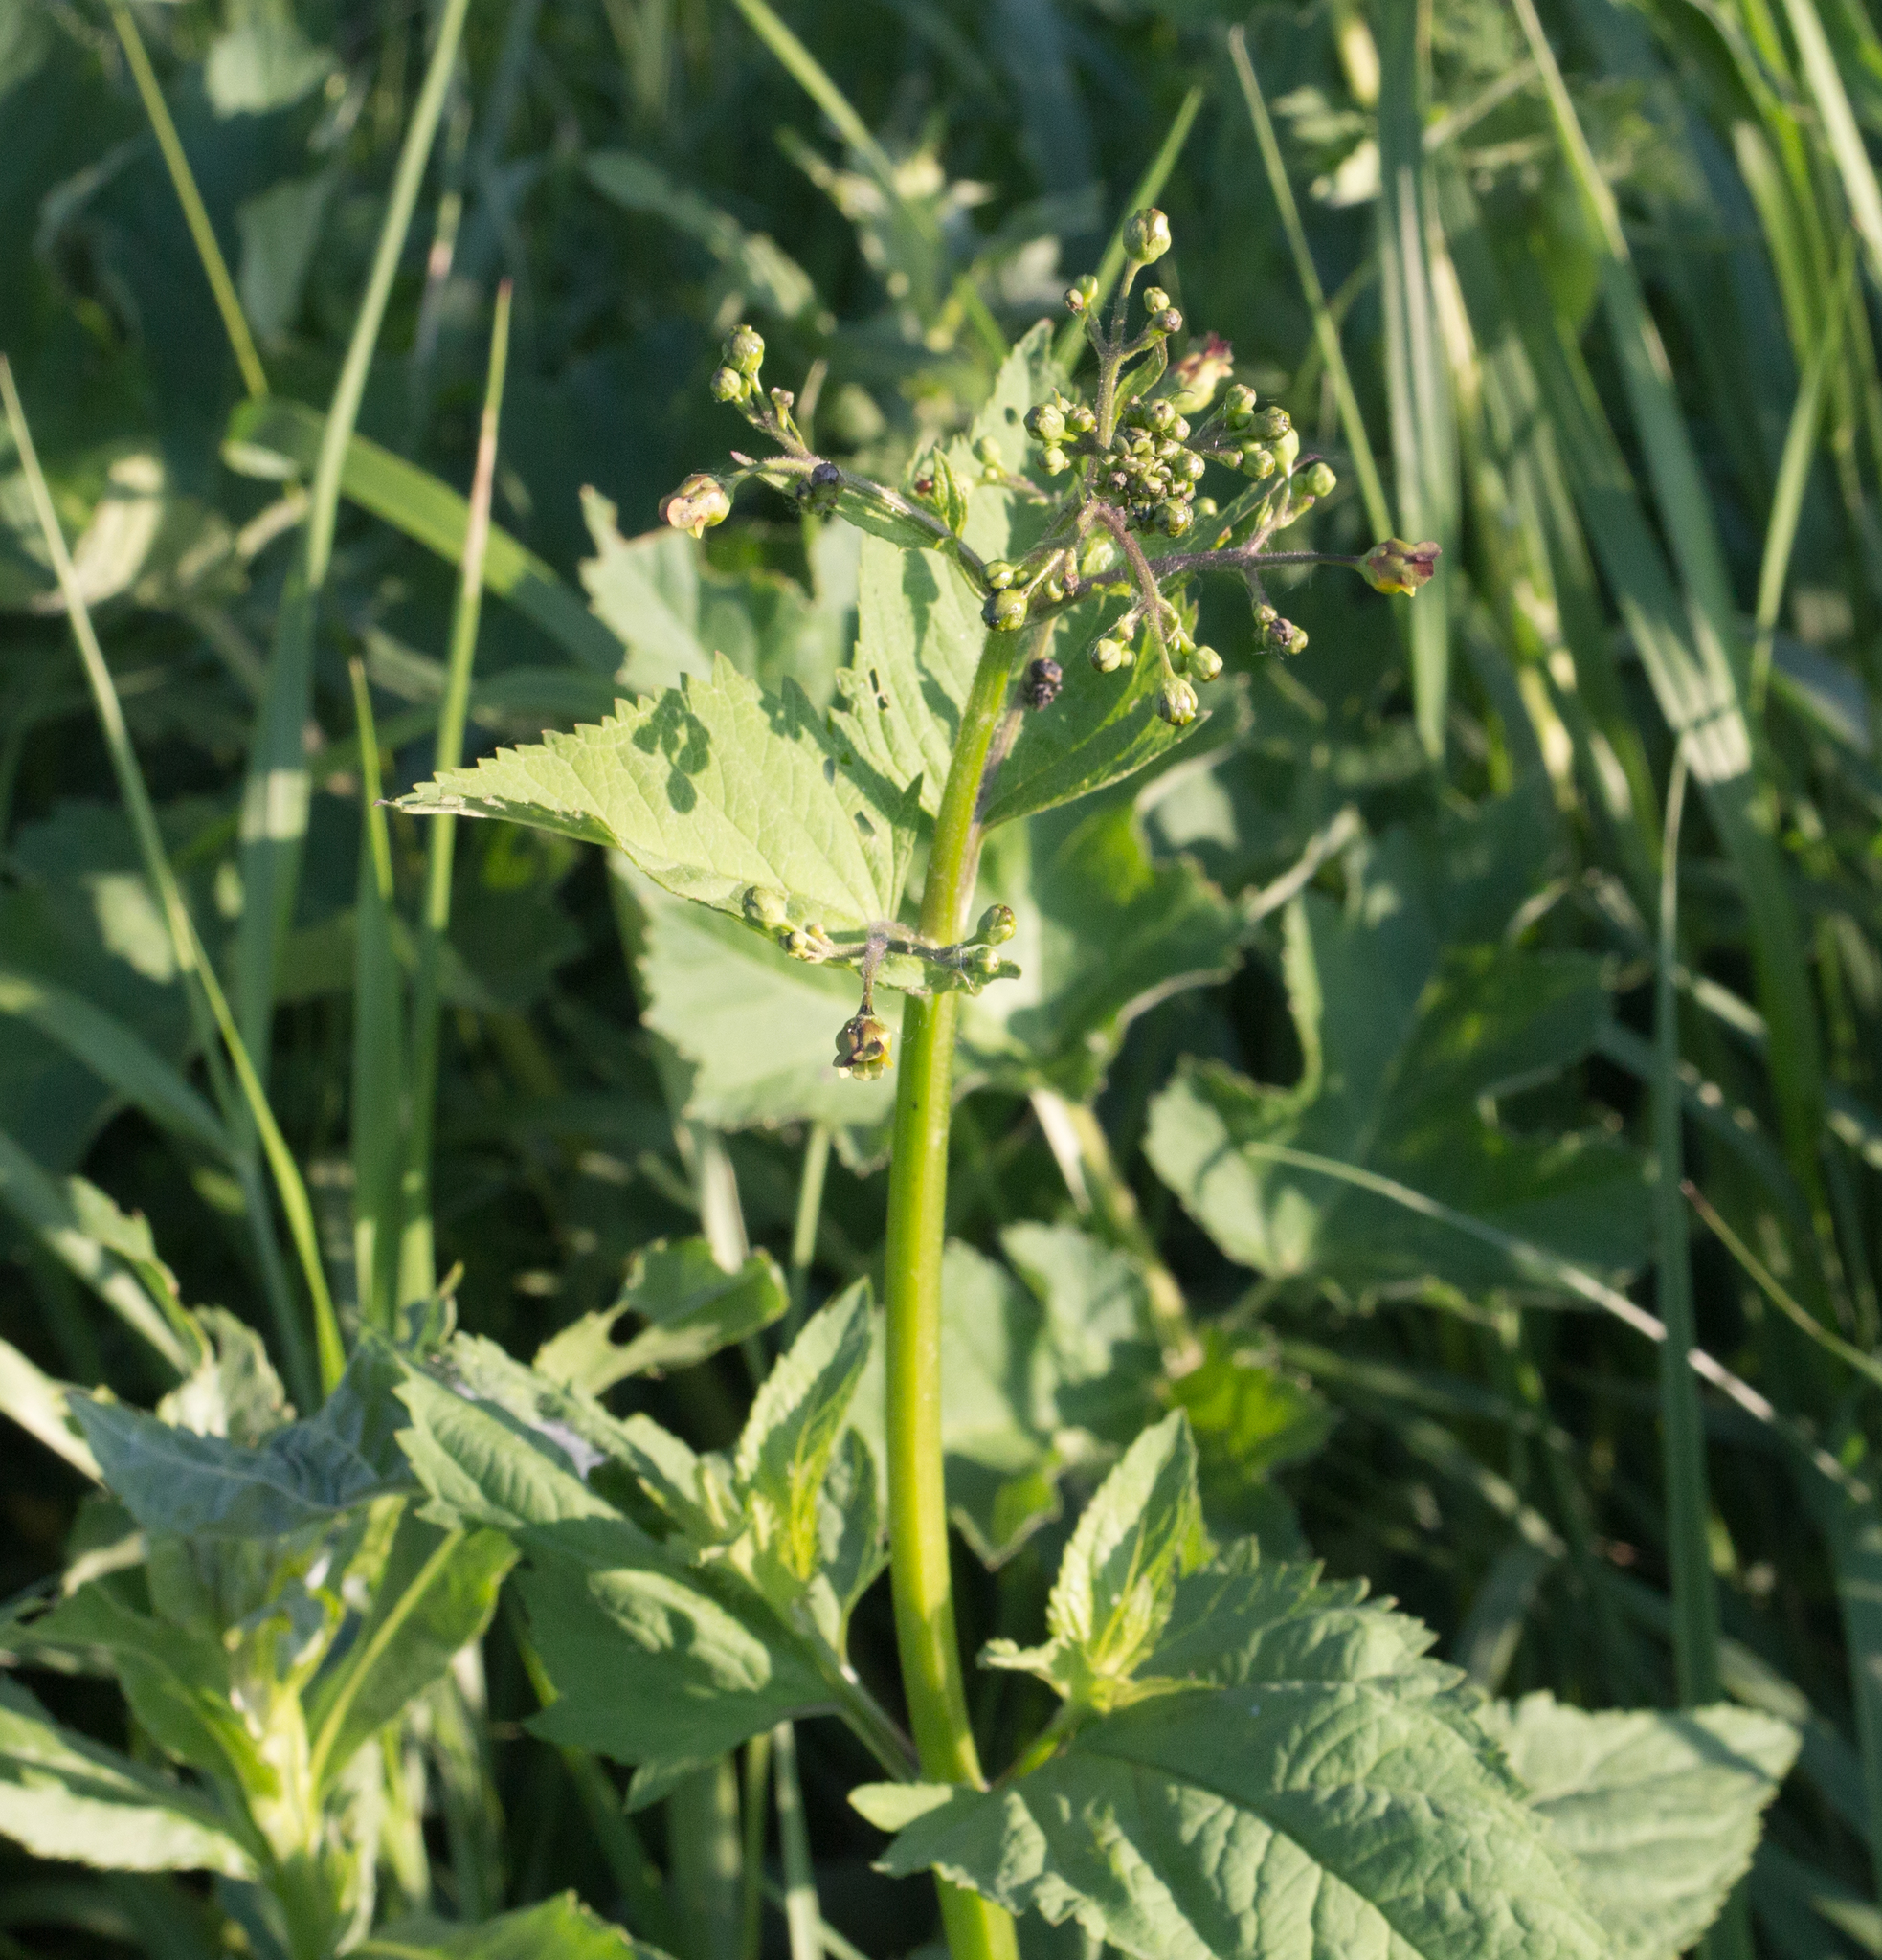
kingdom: Plantae
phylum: Tracheophyta
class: Magnoliopsida
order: Lamiales
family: Scrophulariaceae
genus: Scrophularia
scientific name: Scrophularia nodosa
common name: Common figwort
